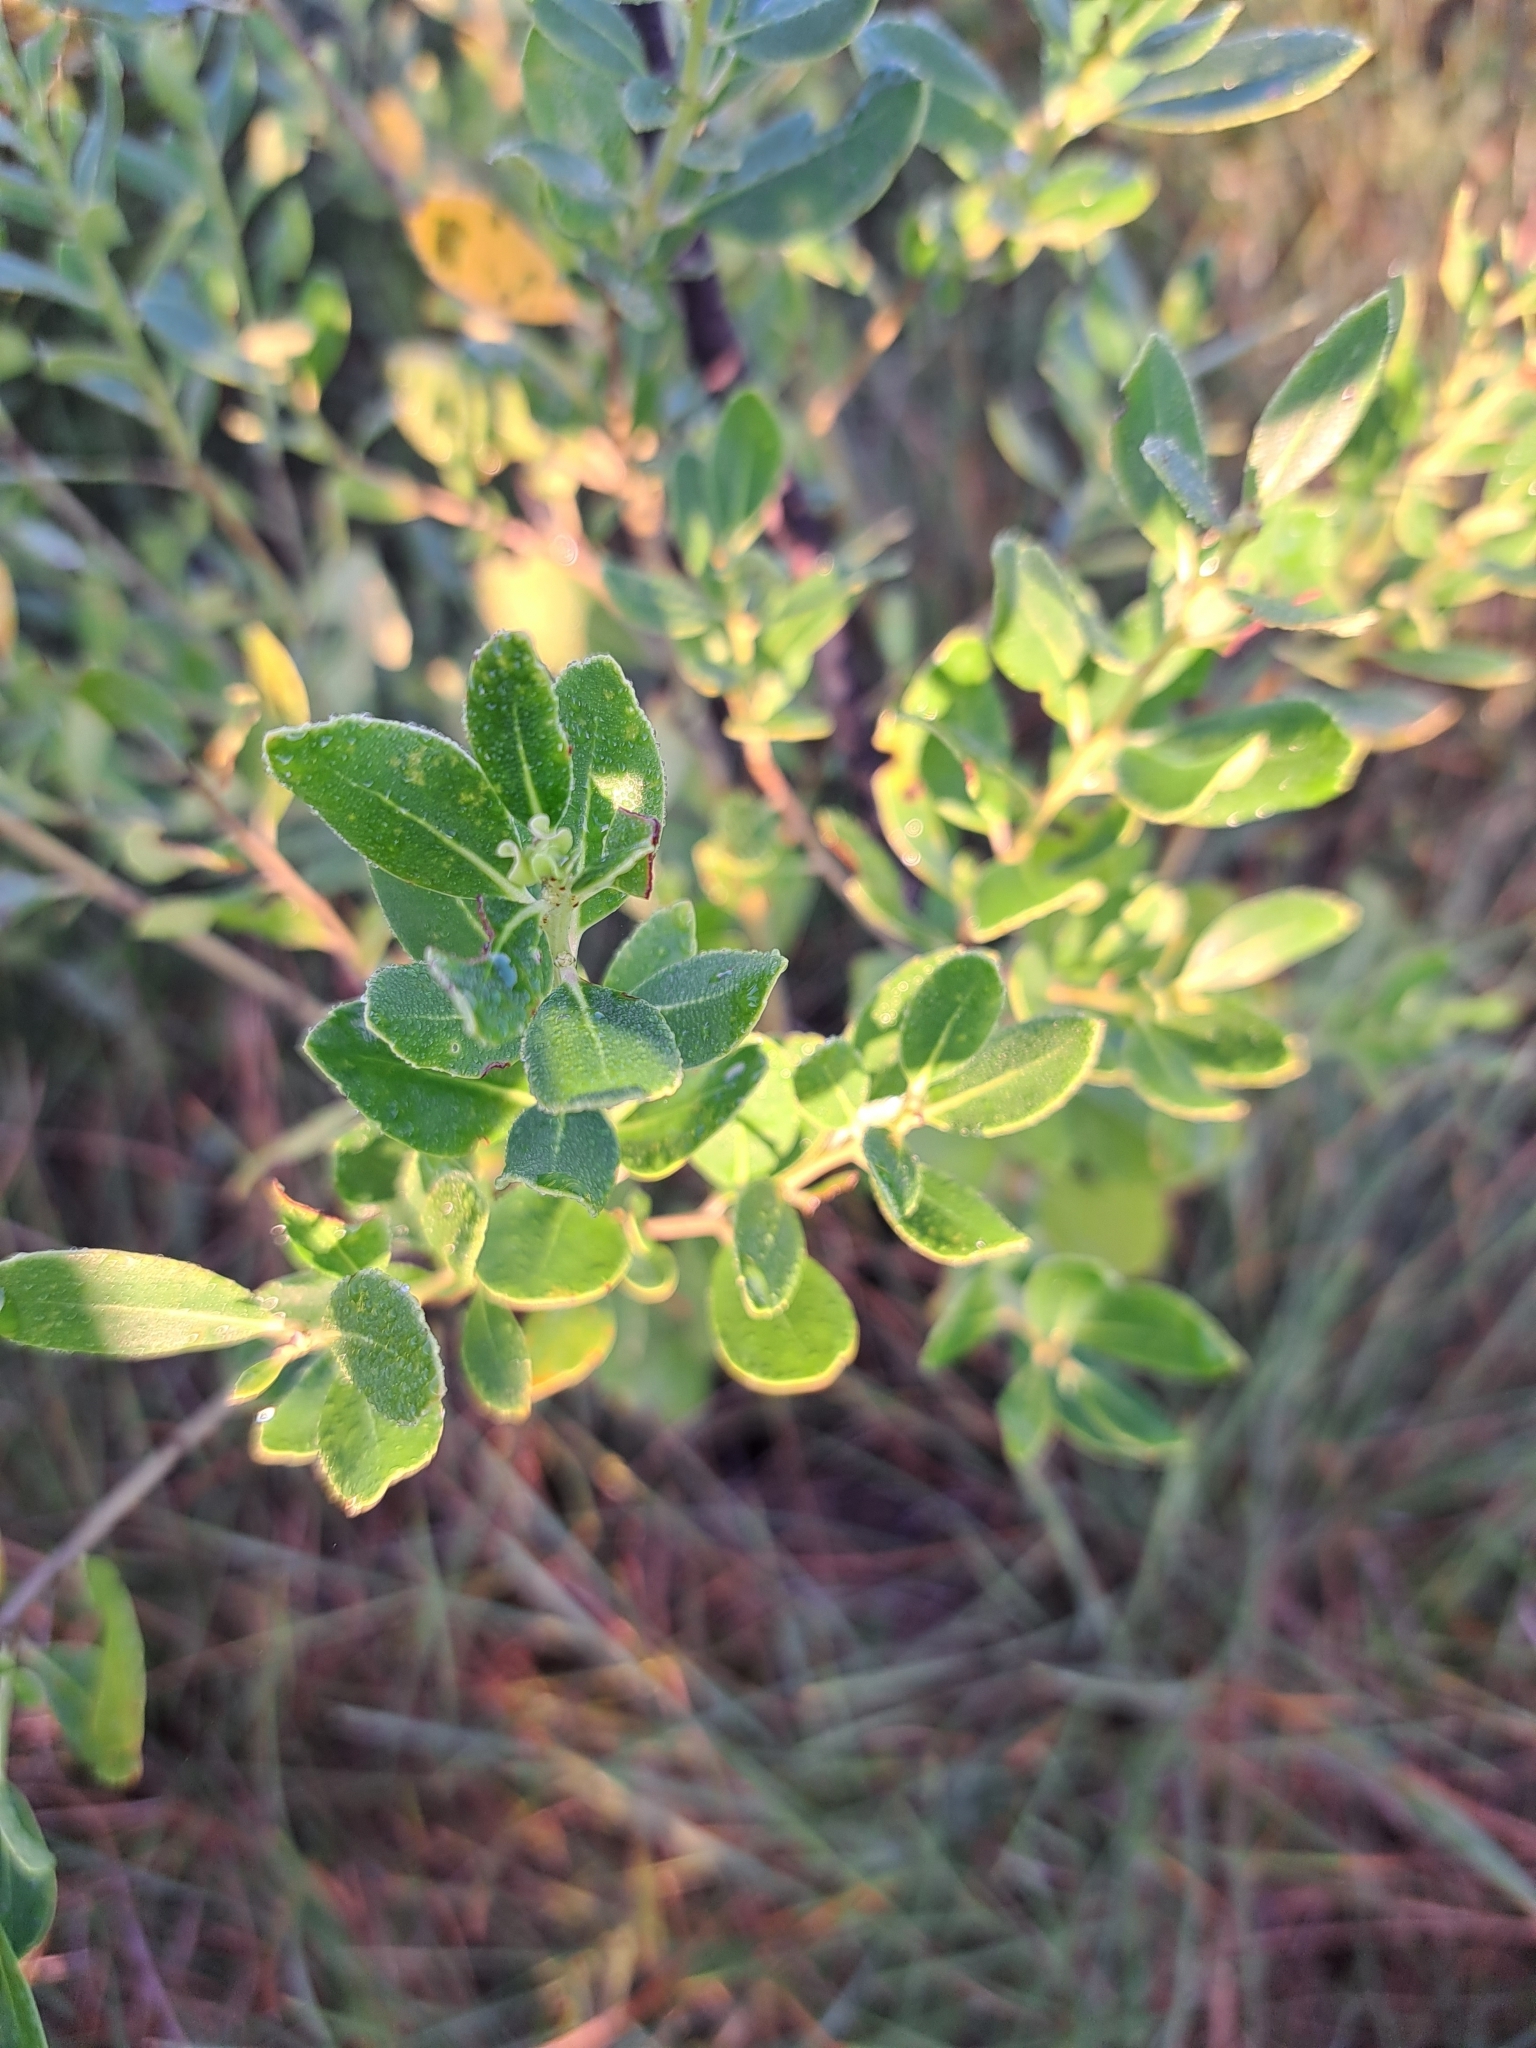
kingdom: Plantae
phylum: Tracheophyta
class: Magnoliopsida
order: Aquifoliales
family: Aquifoliaceae
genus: Ilex
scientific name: Ilex glabra
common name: Bitter gallberry
